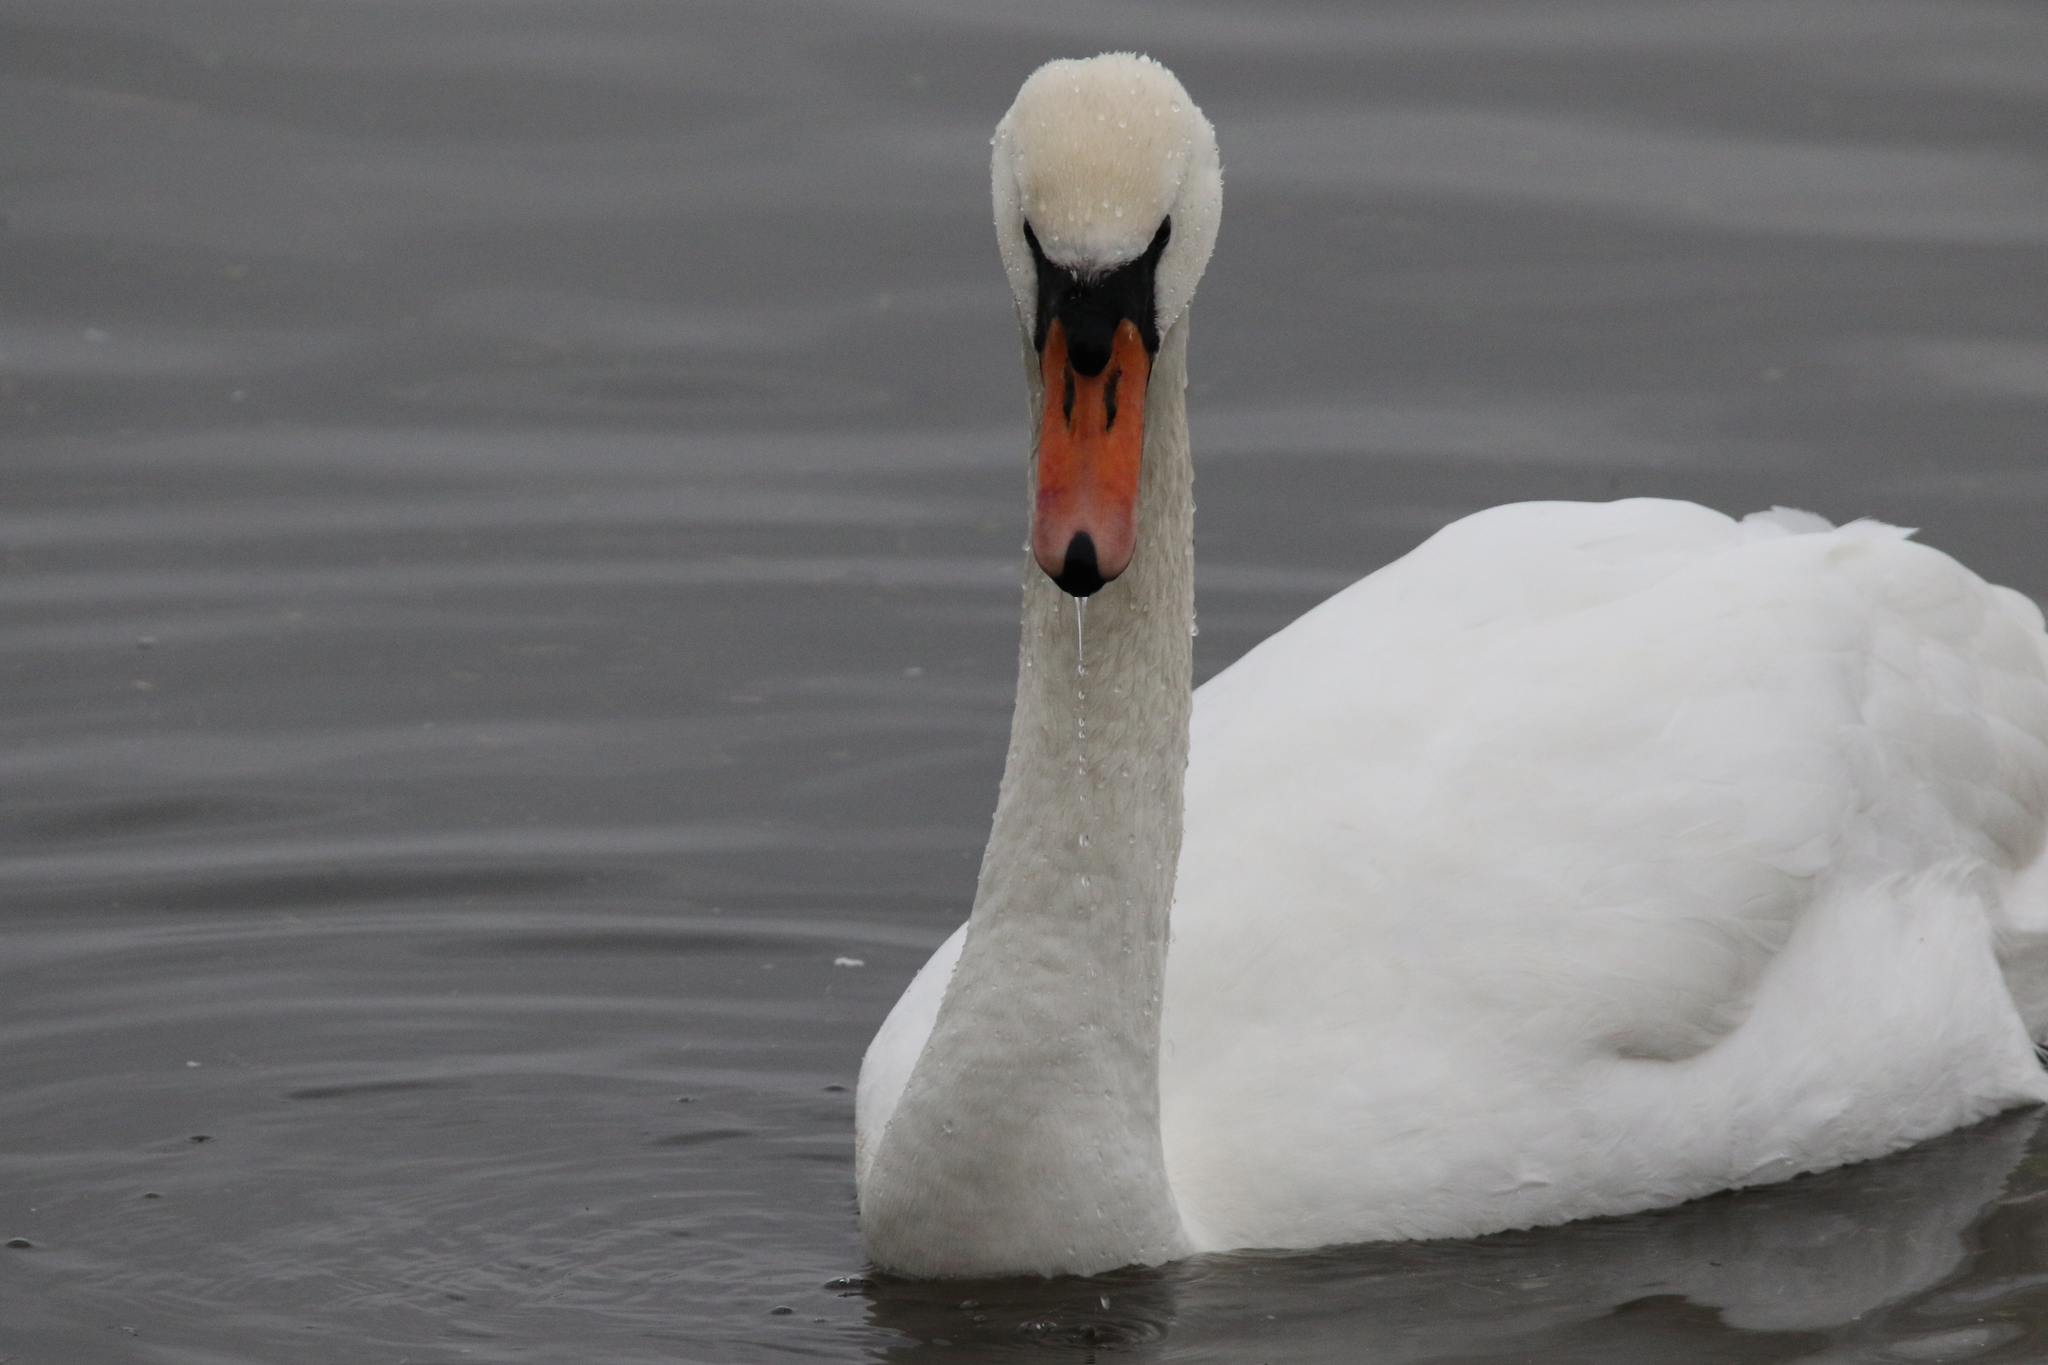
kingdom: Animalia
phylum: Chordata
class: Aves
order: Anseriformes
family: Anatidae
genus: Cygnus
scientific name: Cygnus olor
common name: Mute swan
